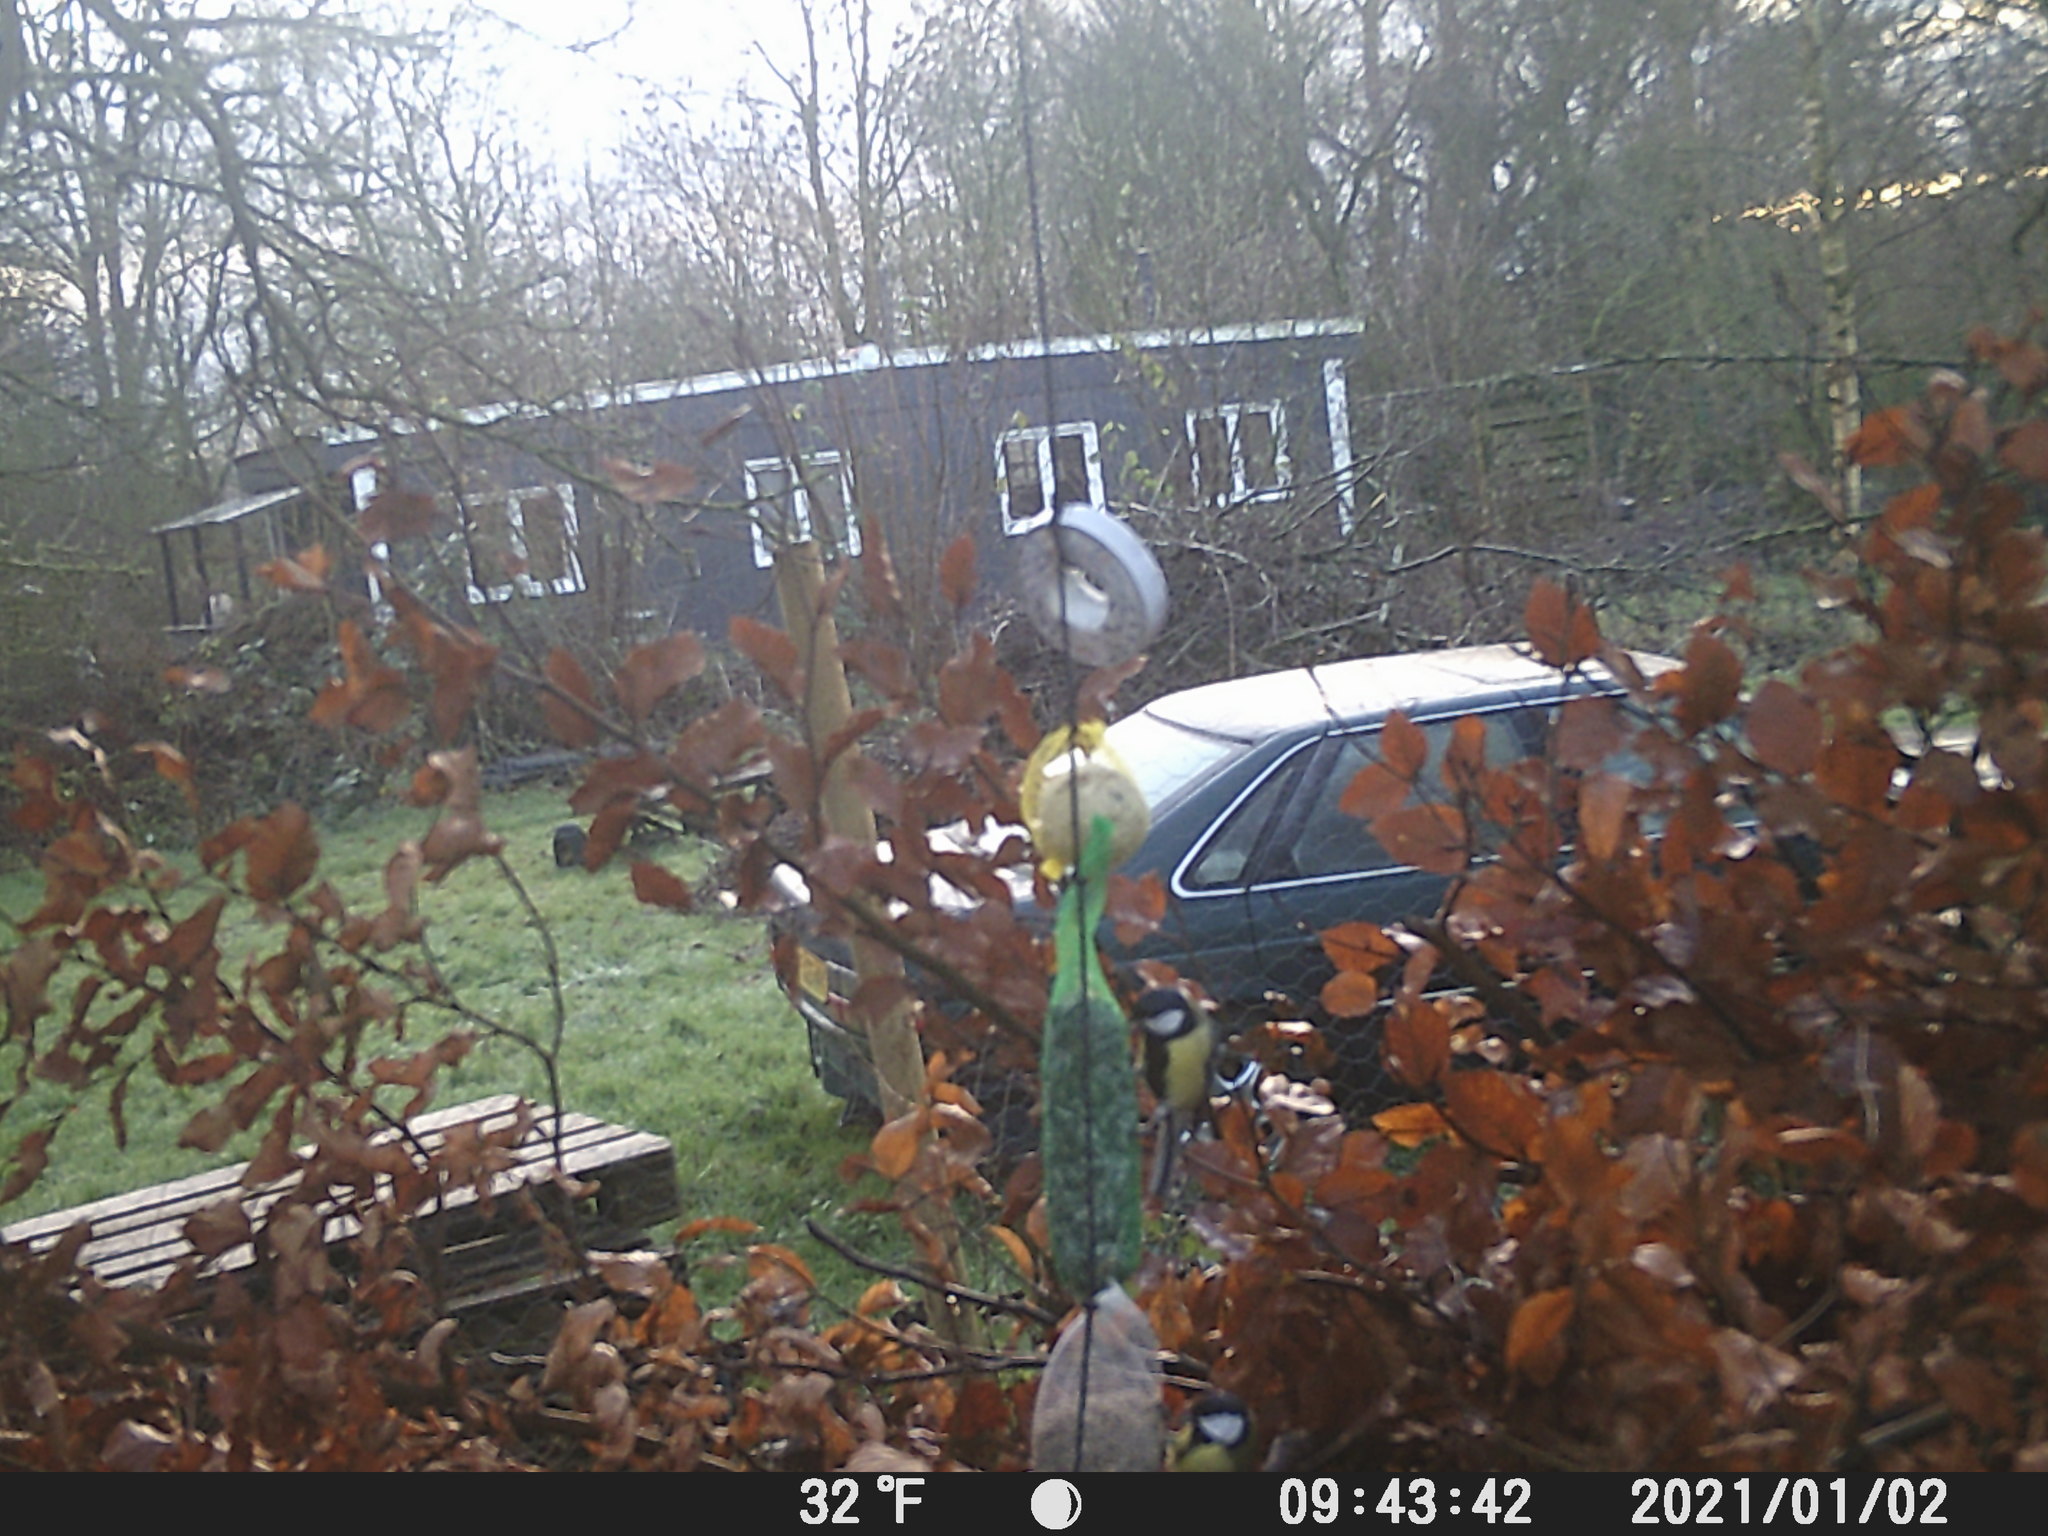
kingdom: Animalia
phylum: Chordata
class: Aves
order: Passeriformes
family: Paridae
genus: Parus
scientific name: Parus major
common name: Great tit
